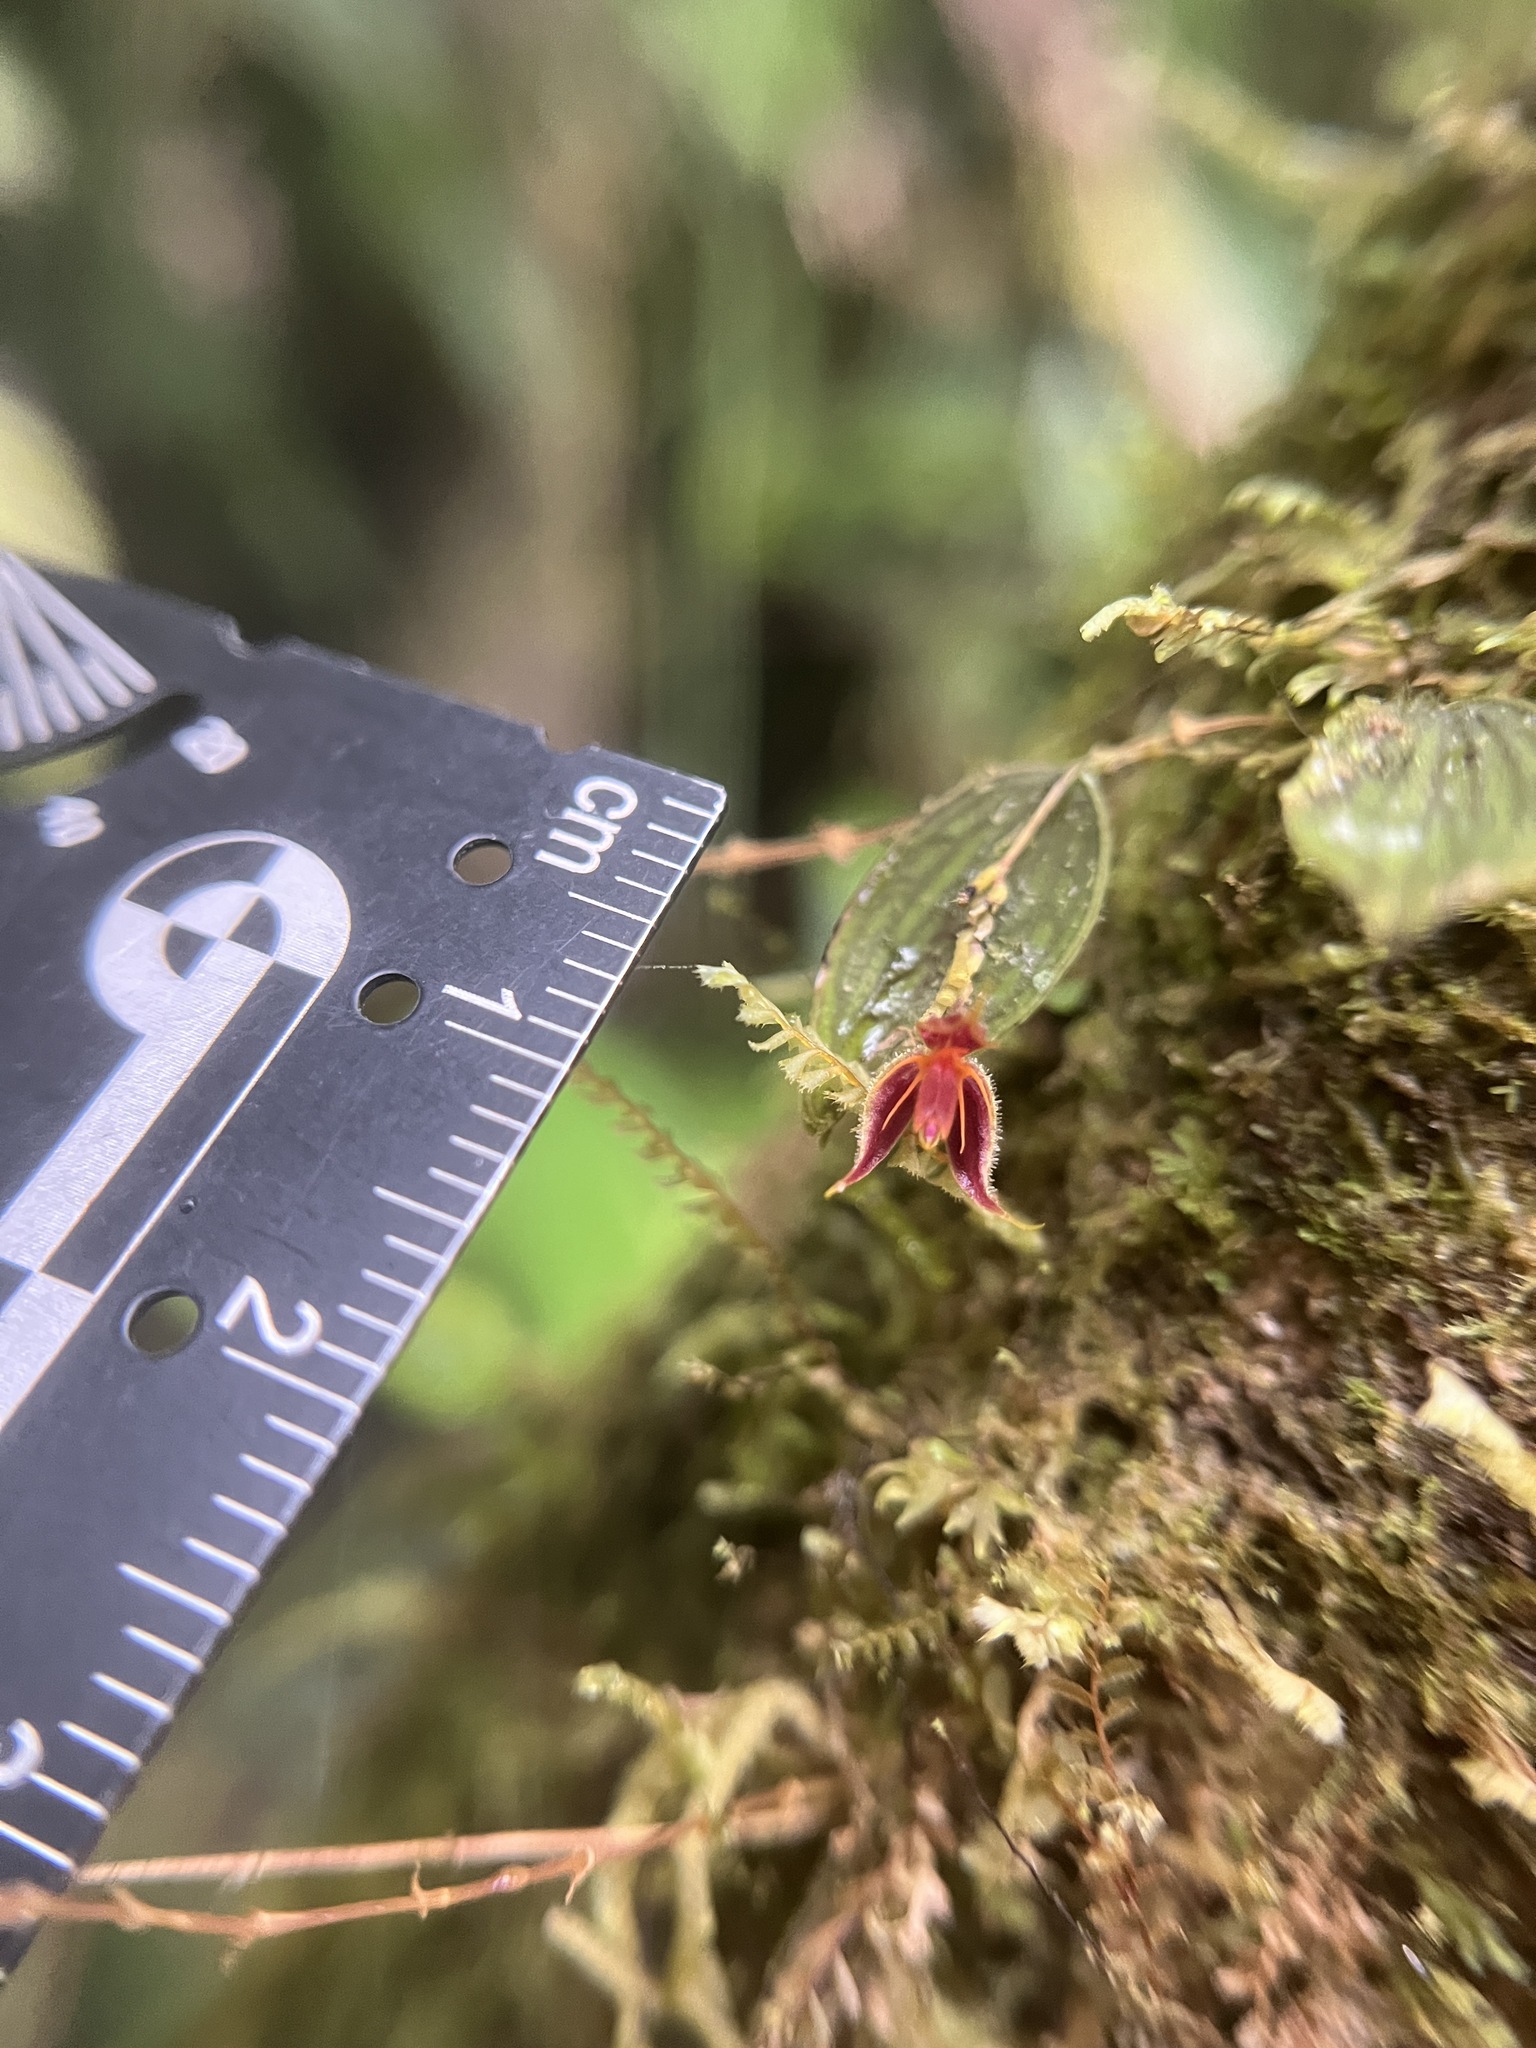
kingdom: Plantae
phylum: Tracheophyta
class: Liliopsida
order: Asparagales
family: Orchidaceae
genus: Lepanthes
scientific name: Lepanthes hexapus
